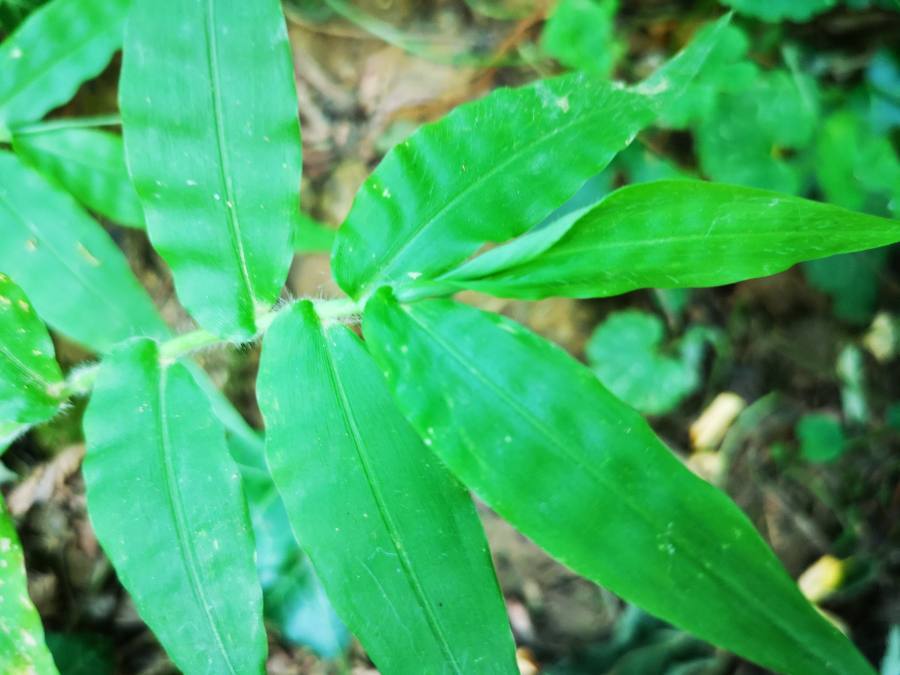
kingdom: Plantae
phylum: Tracheophyta
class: Liliopsida
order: Poales
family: Poaceae
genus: Oplismenus
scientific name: Oplismenus undulatifolius
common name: Wavyleaf basketgrass
